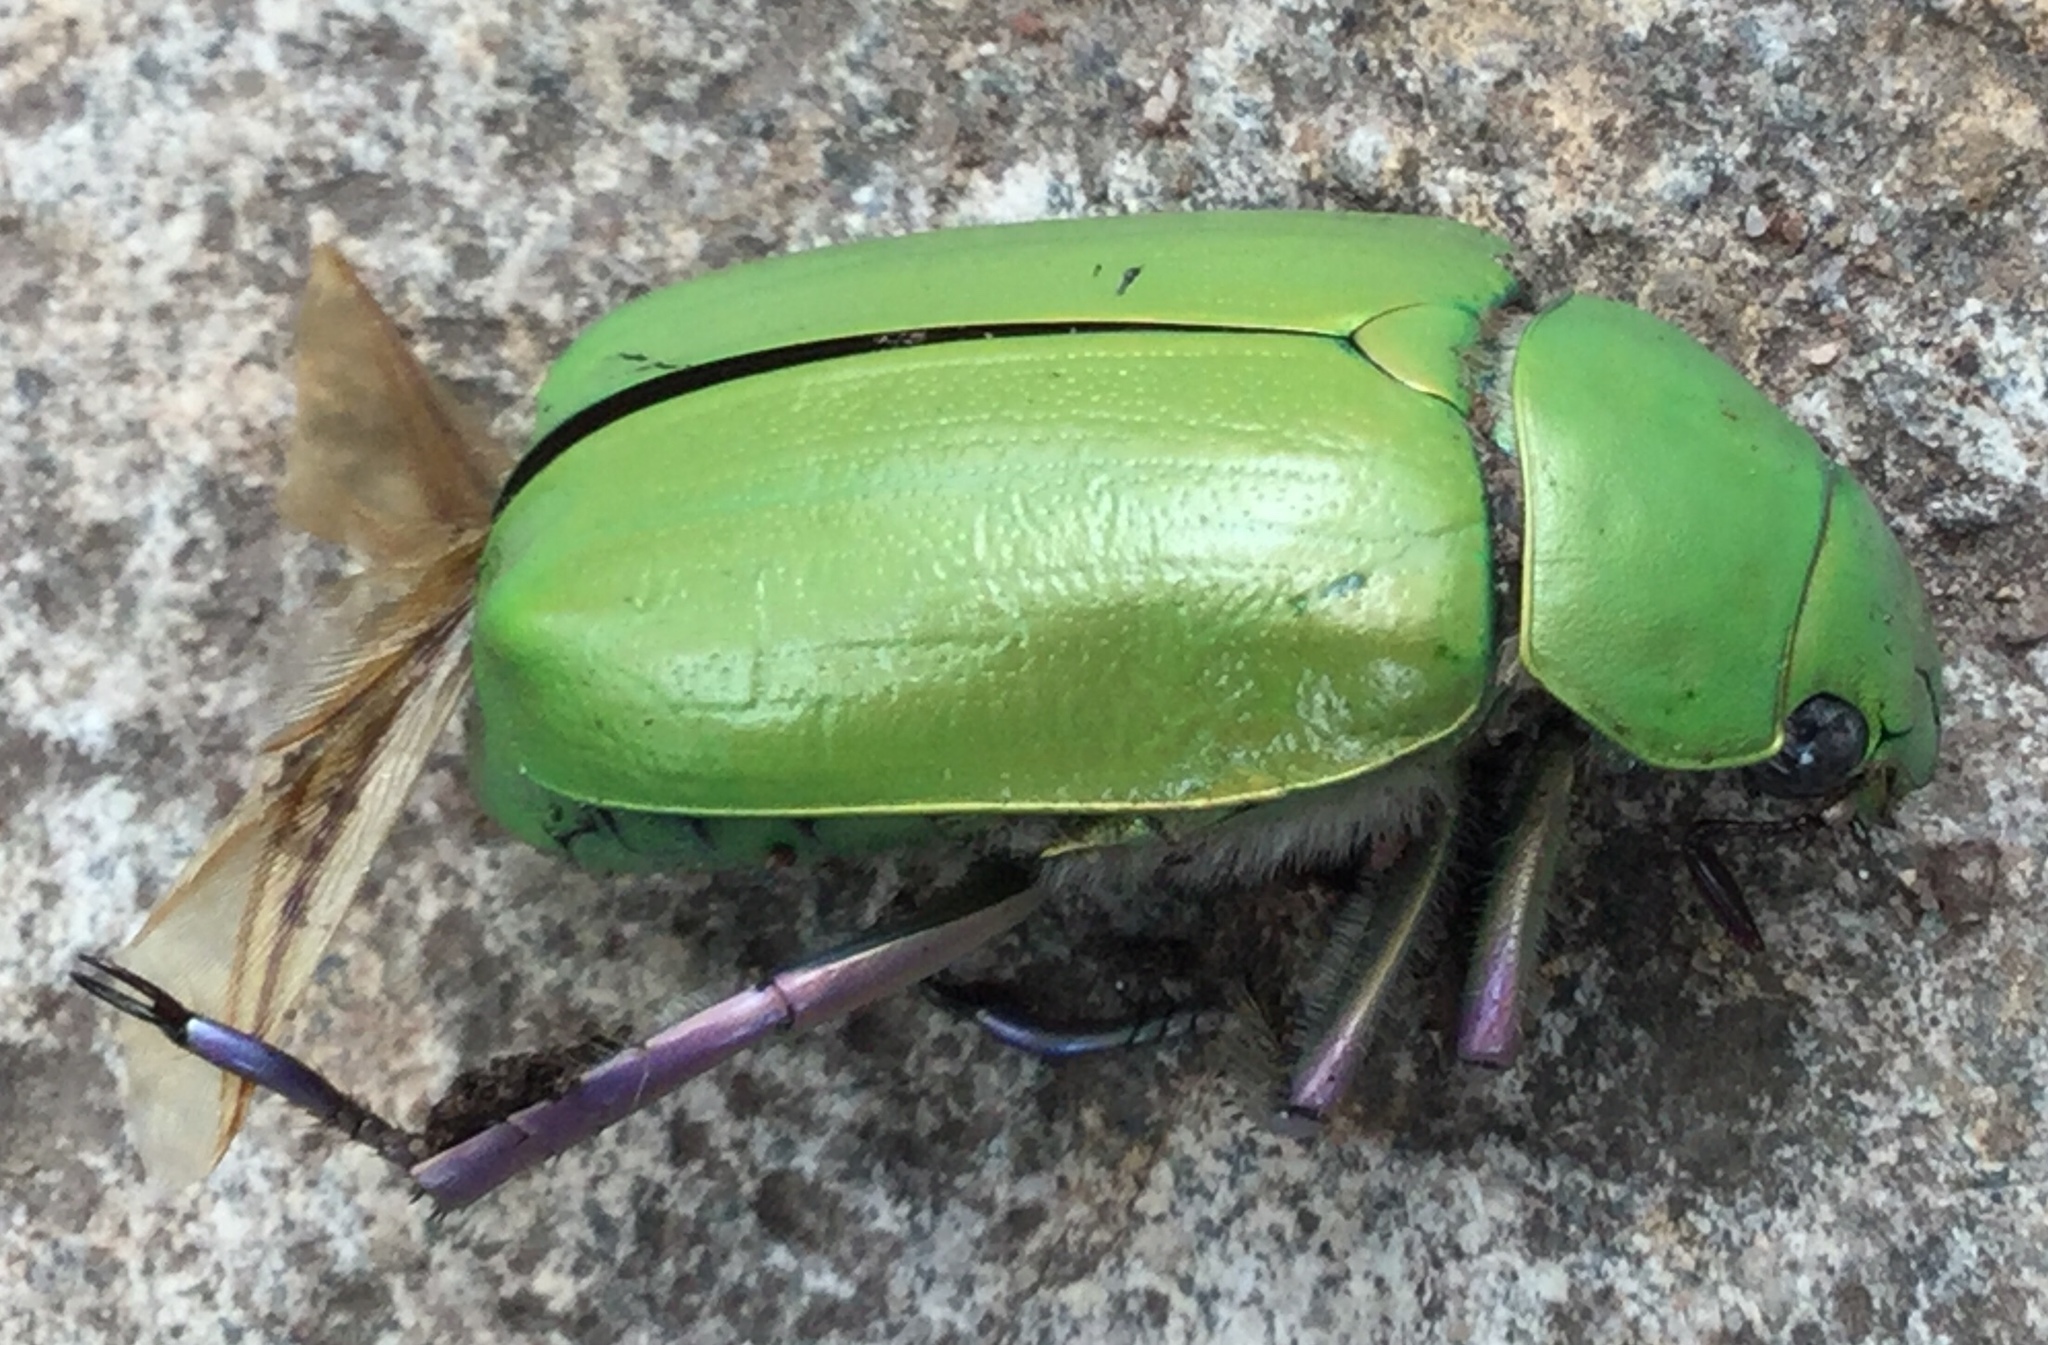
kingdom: Animalia
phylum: Arthropoda
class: Insecta
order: Coleoptera
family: Scarabaeidae
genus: Chrysina
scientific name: Chrysina beyeri
